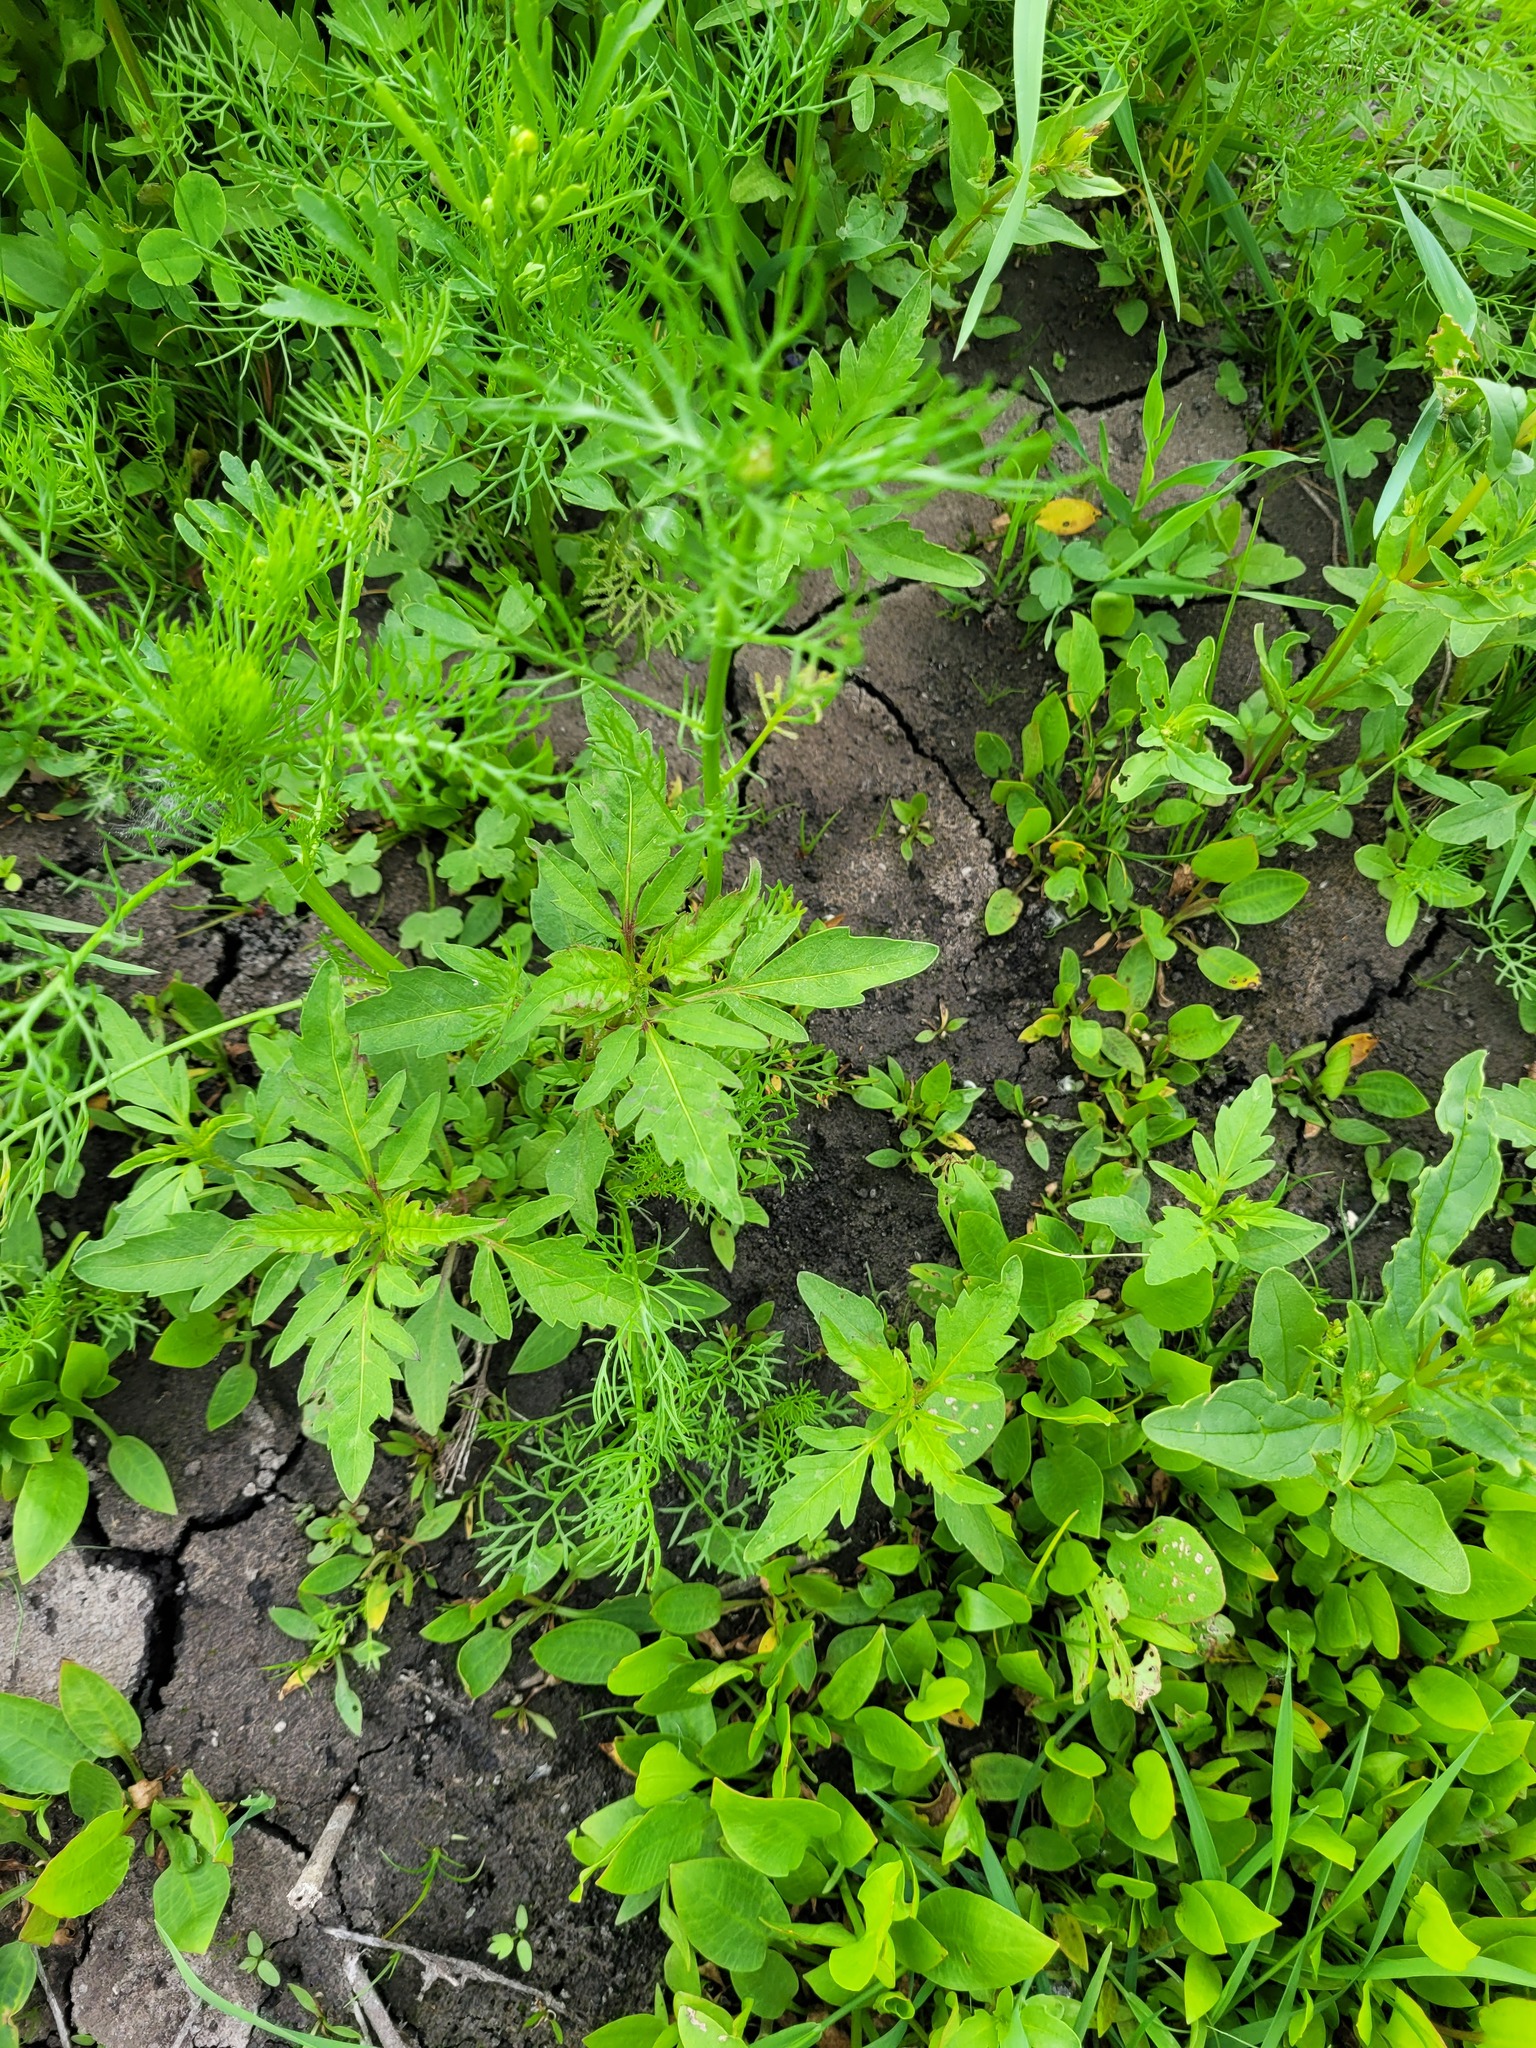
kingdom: Plantae
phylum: Tracheophyta
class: Magnoliopsida
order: Asterales
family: Asteraceae
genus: Bidens
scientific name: Bidens tripartita
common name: Trifid bur-marigold
